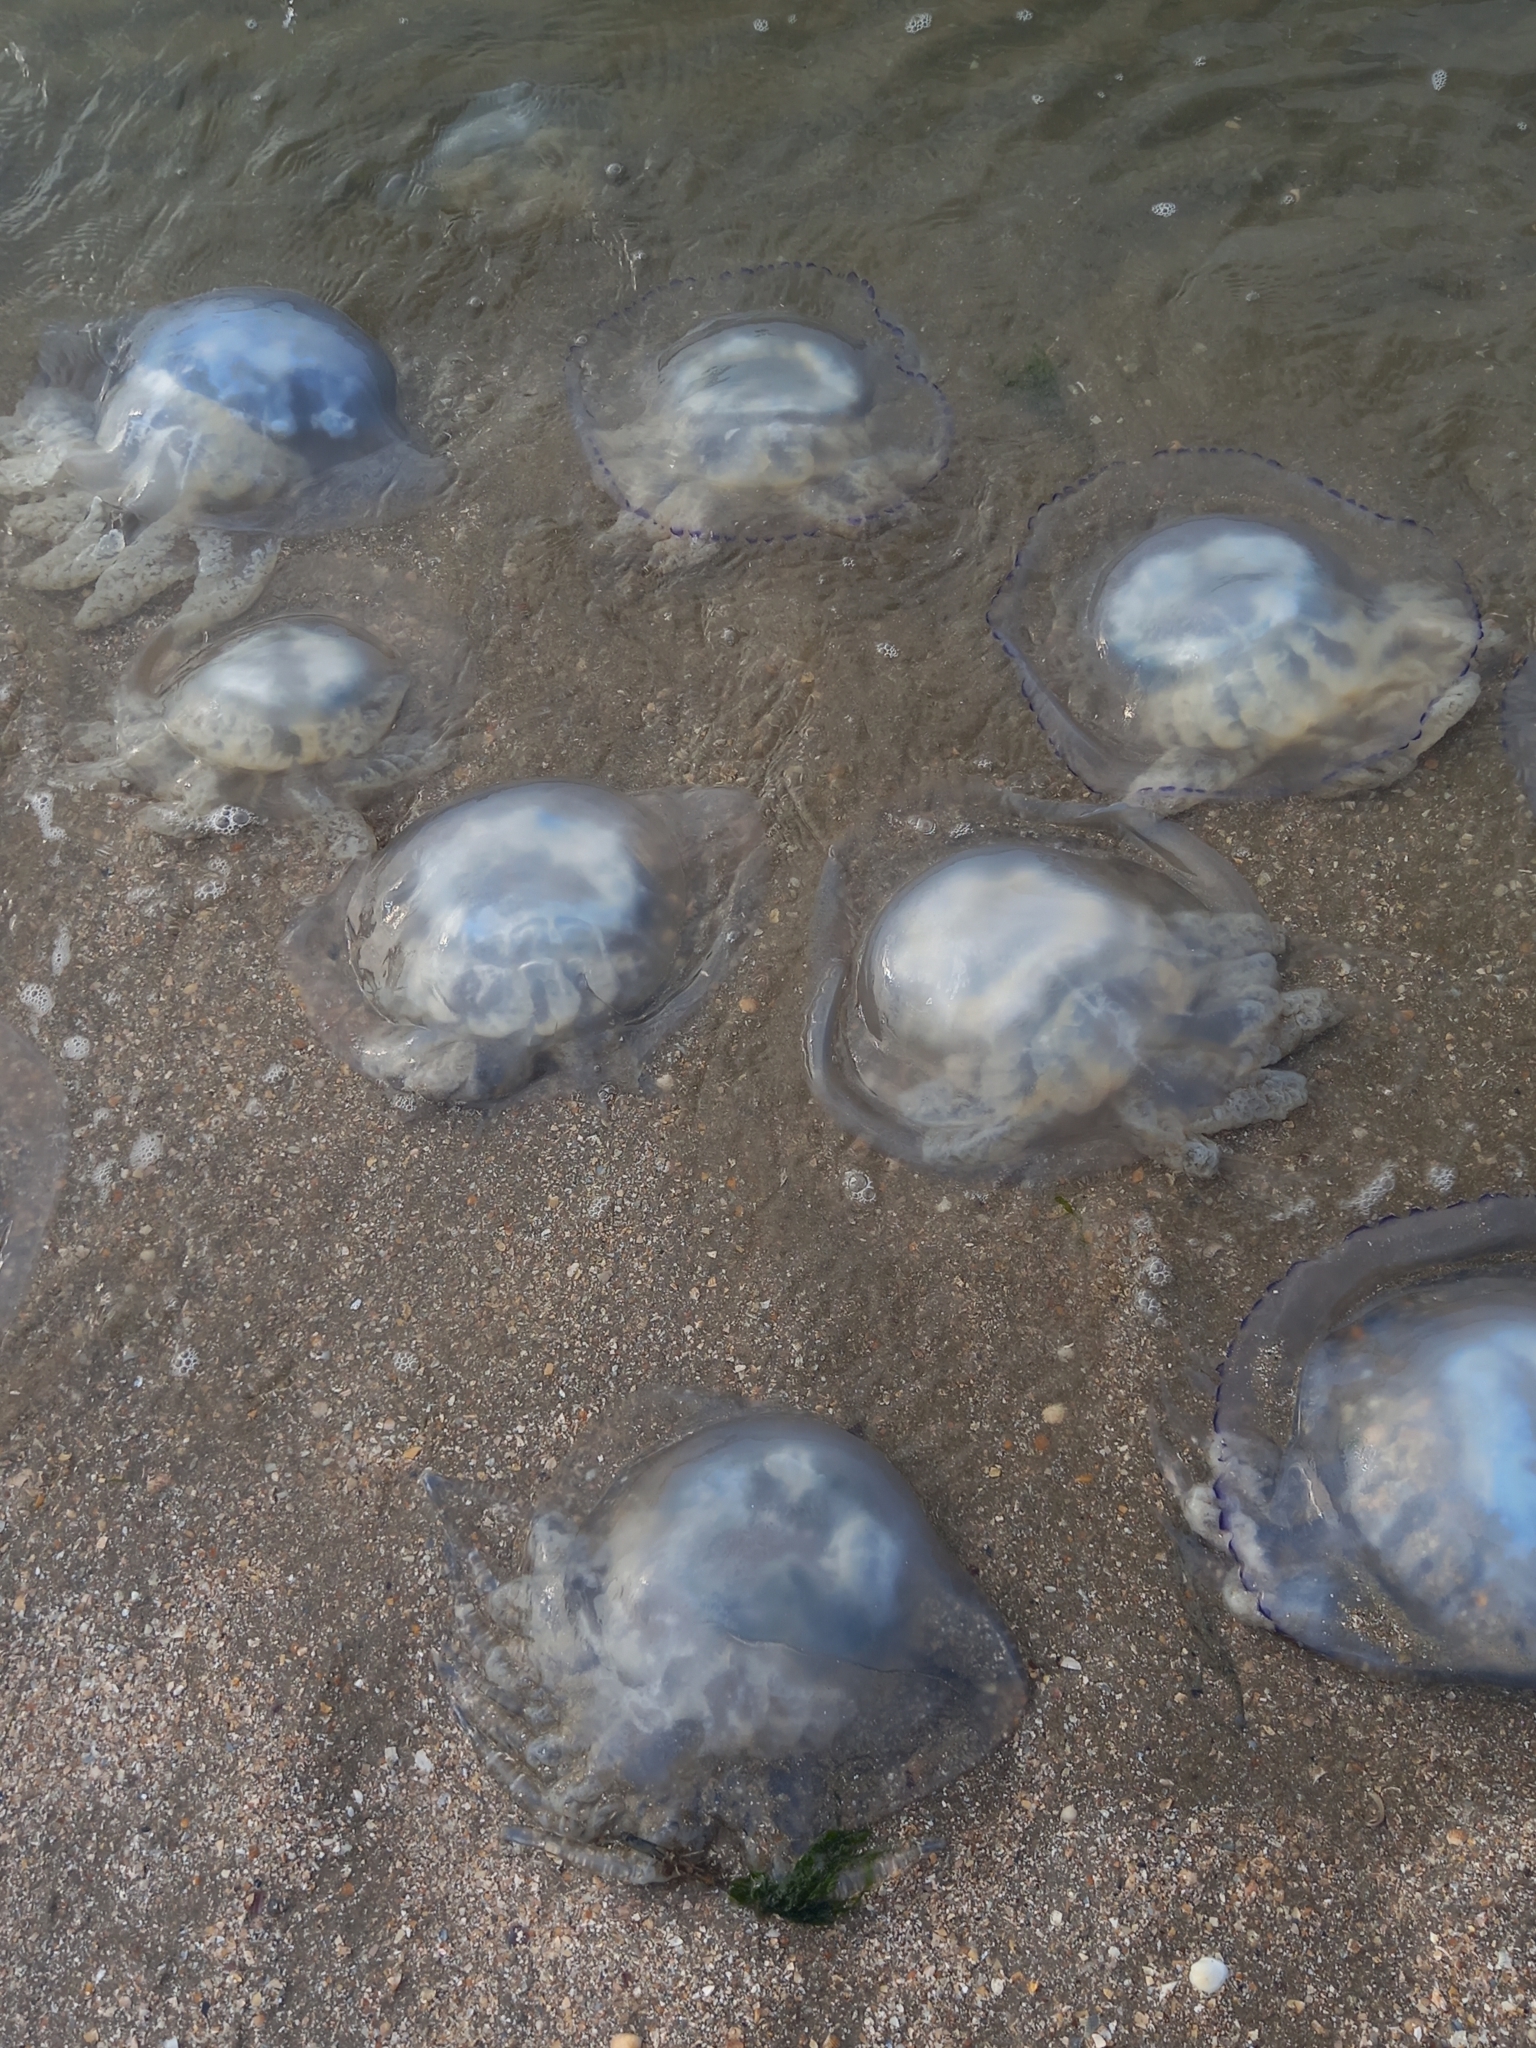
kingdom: Animalia
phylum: Cnidaria
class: Scyphozoa
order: Rhizostomeae
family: Rhizostomatidae
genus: Rhizostoma
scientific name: Rhizostoma pulmo
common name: Barrel jellyfish
